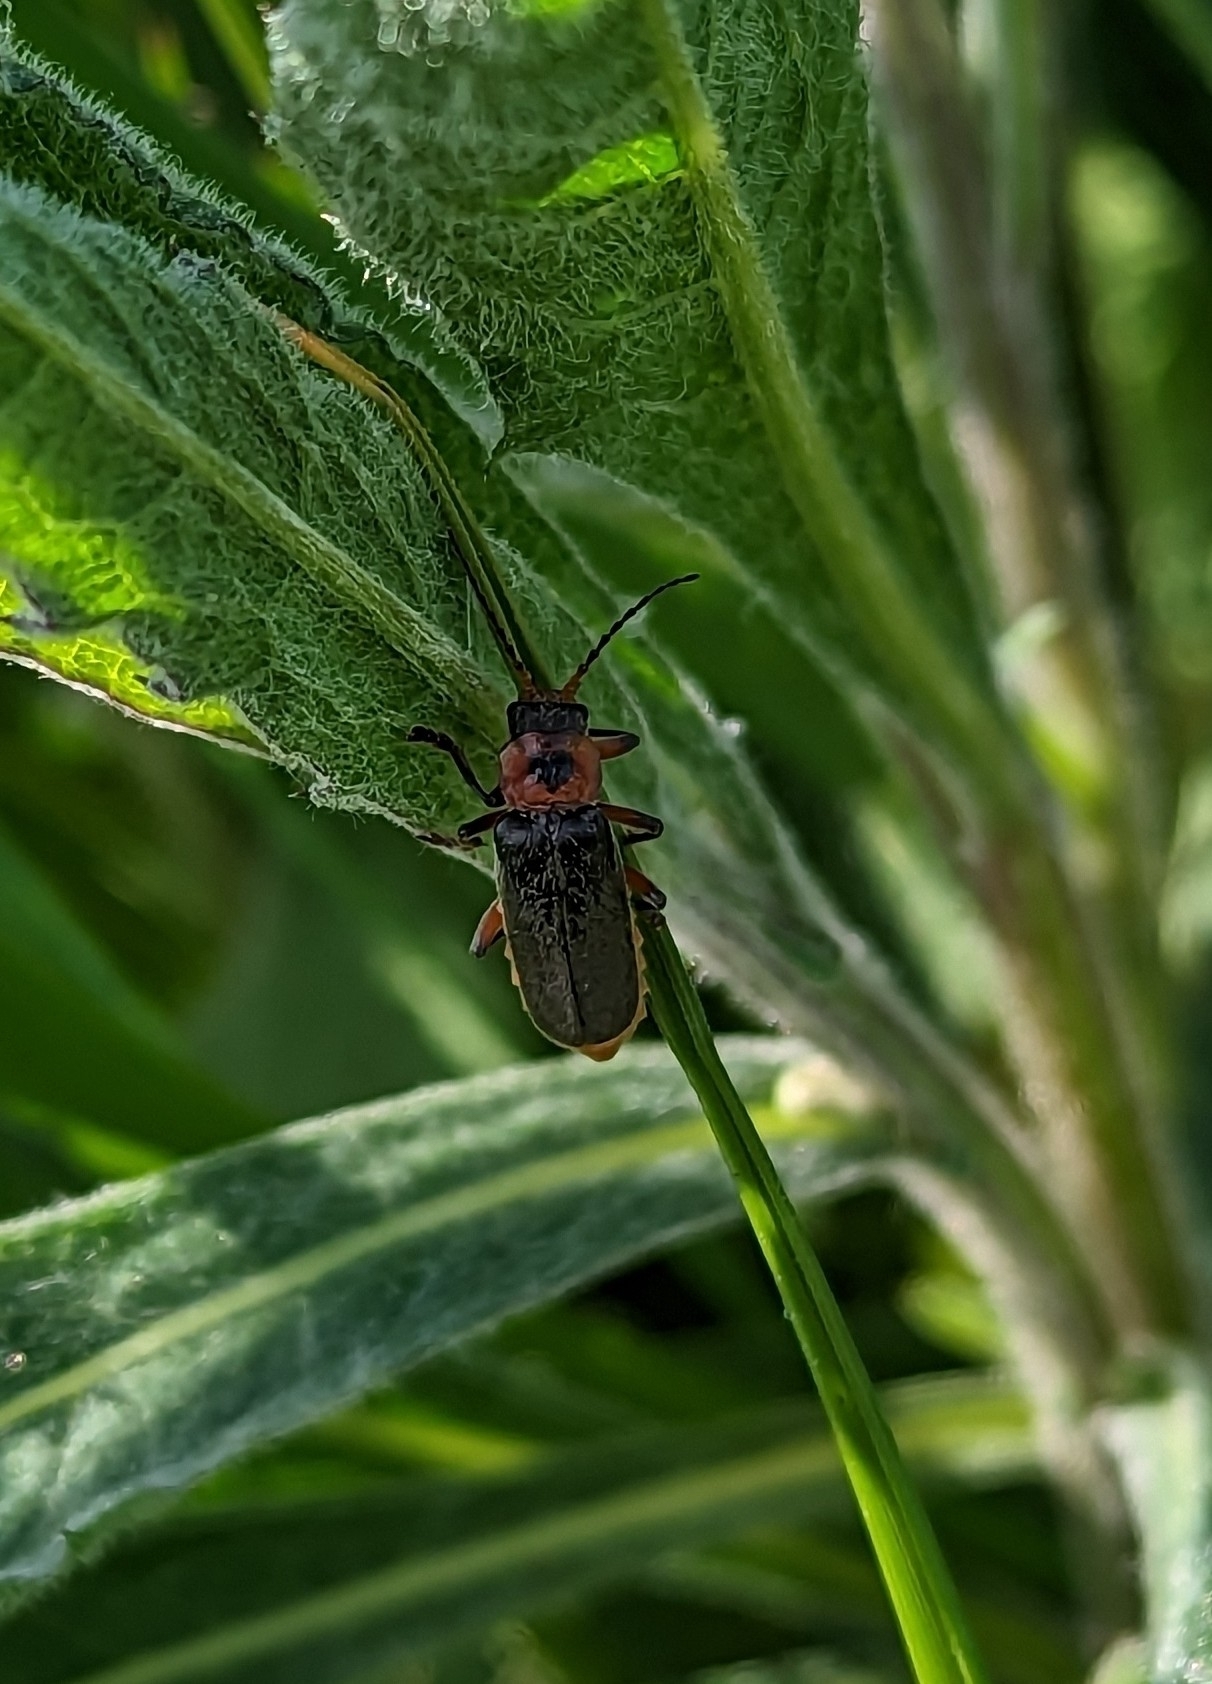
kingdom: Animalia
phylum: Arthropoda
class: Insecta
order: Coleoptera
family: Cantharidae
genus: Cantharis
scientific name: Cantharis rustica
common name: Soldier beetle
